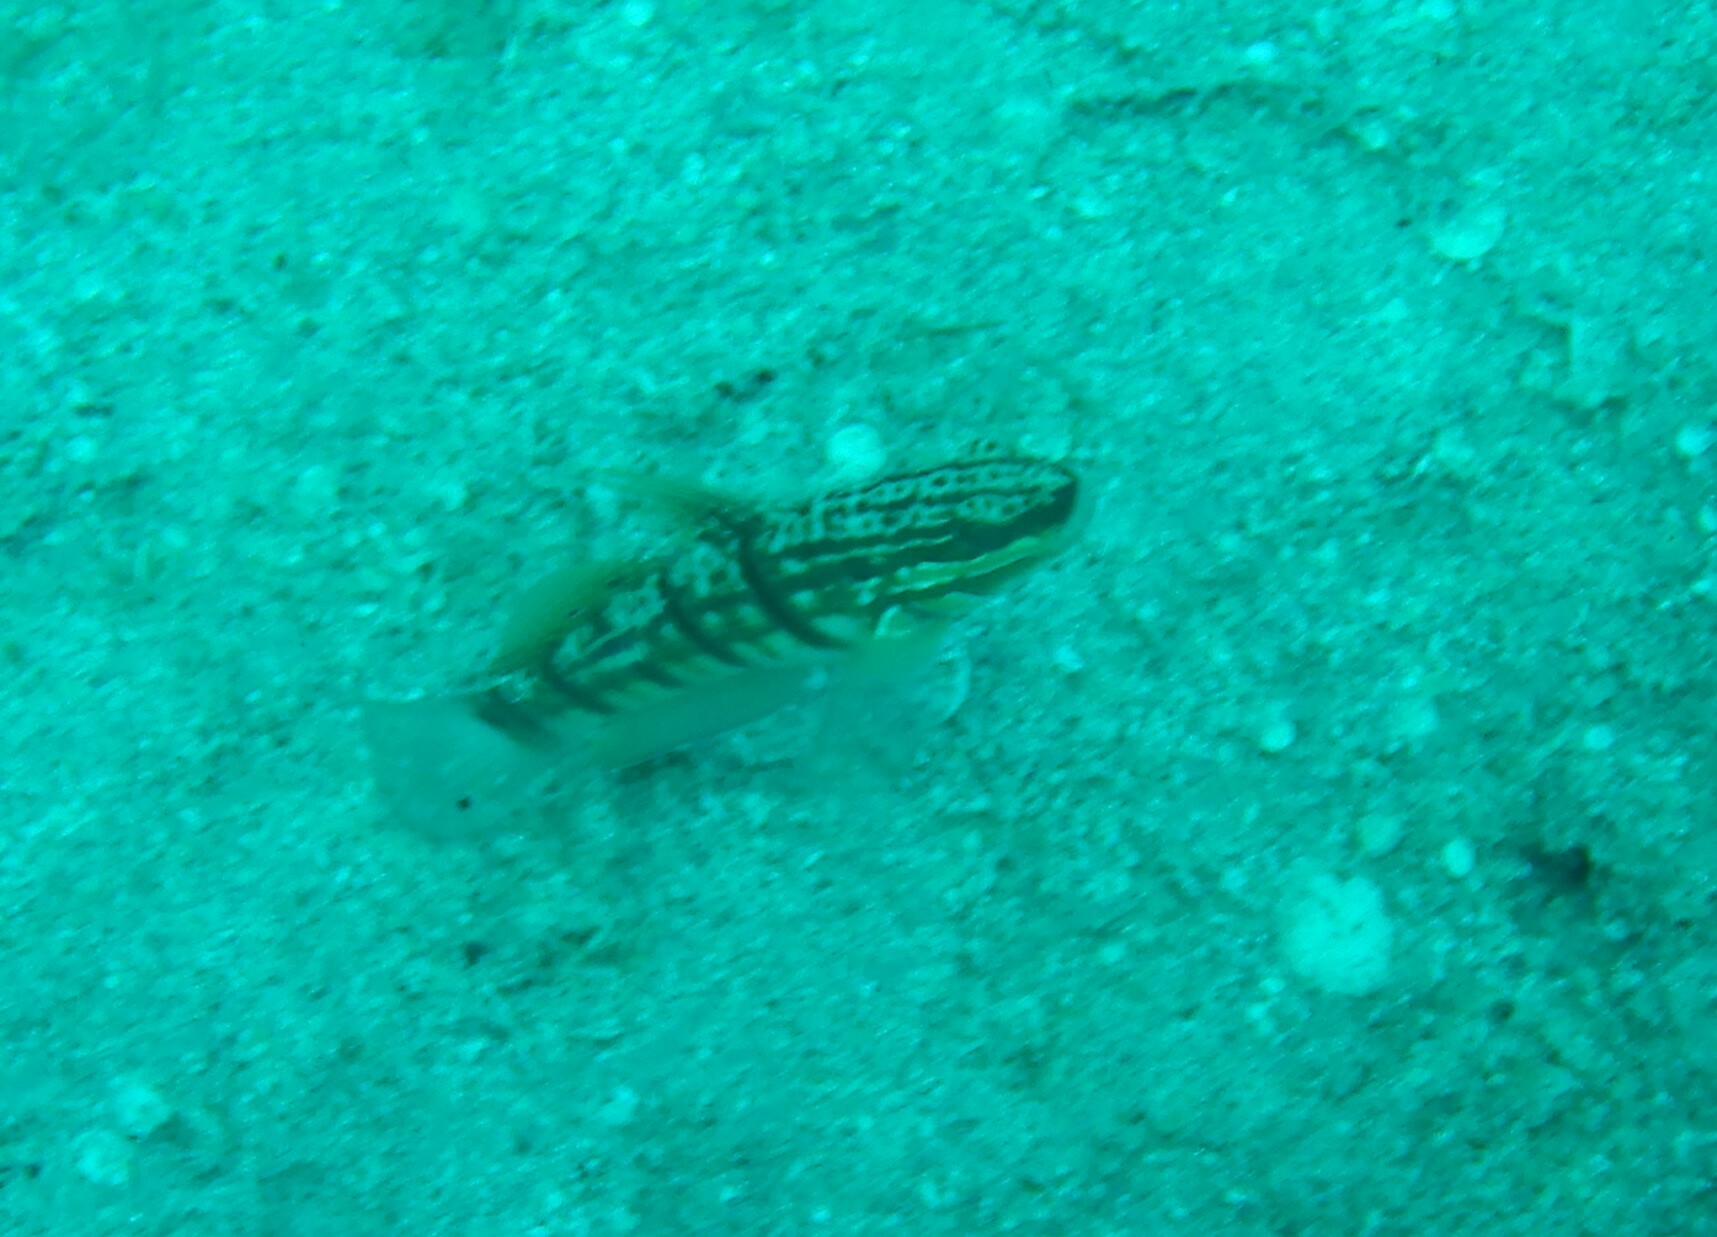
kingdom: Animalia
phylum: Chordata
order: Perciformes
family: Gobiidae
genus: Amblygobius
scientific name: Amblygobius albimaculatus
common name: Butterfly goby
